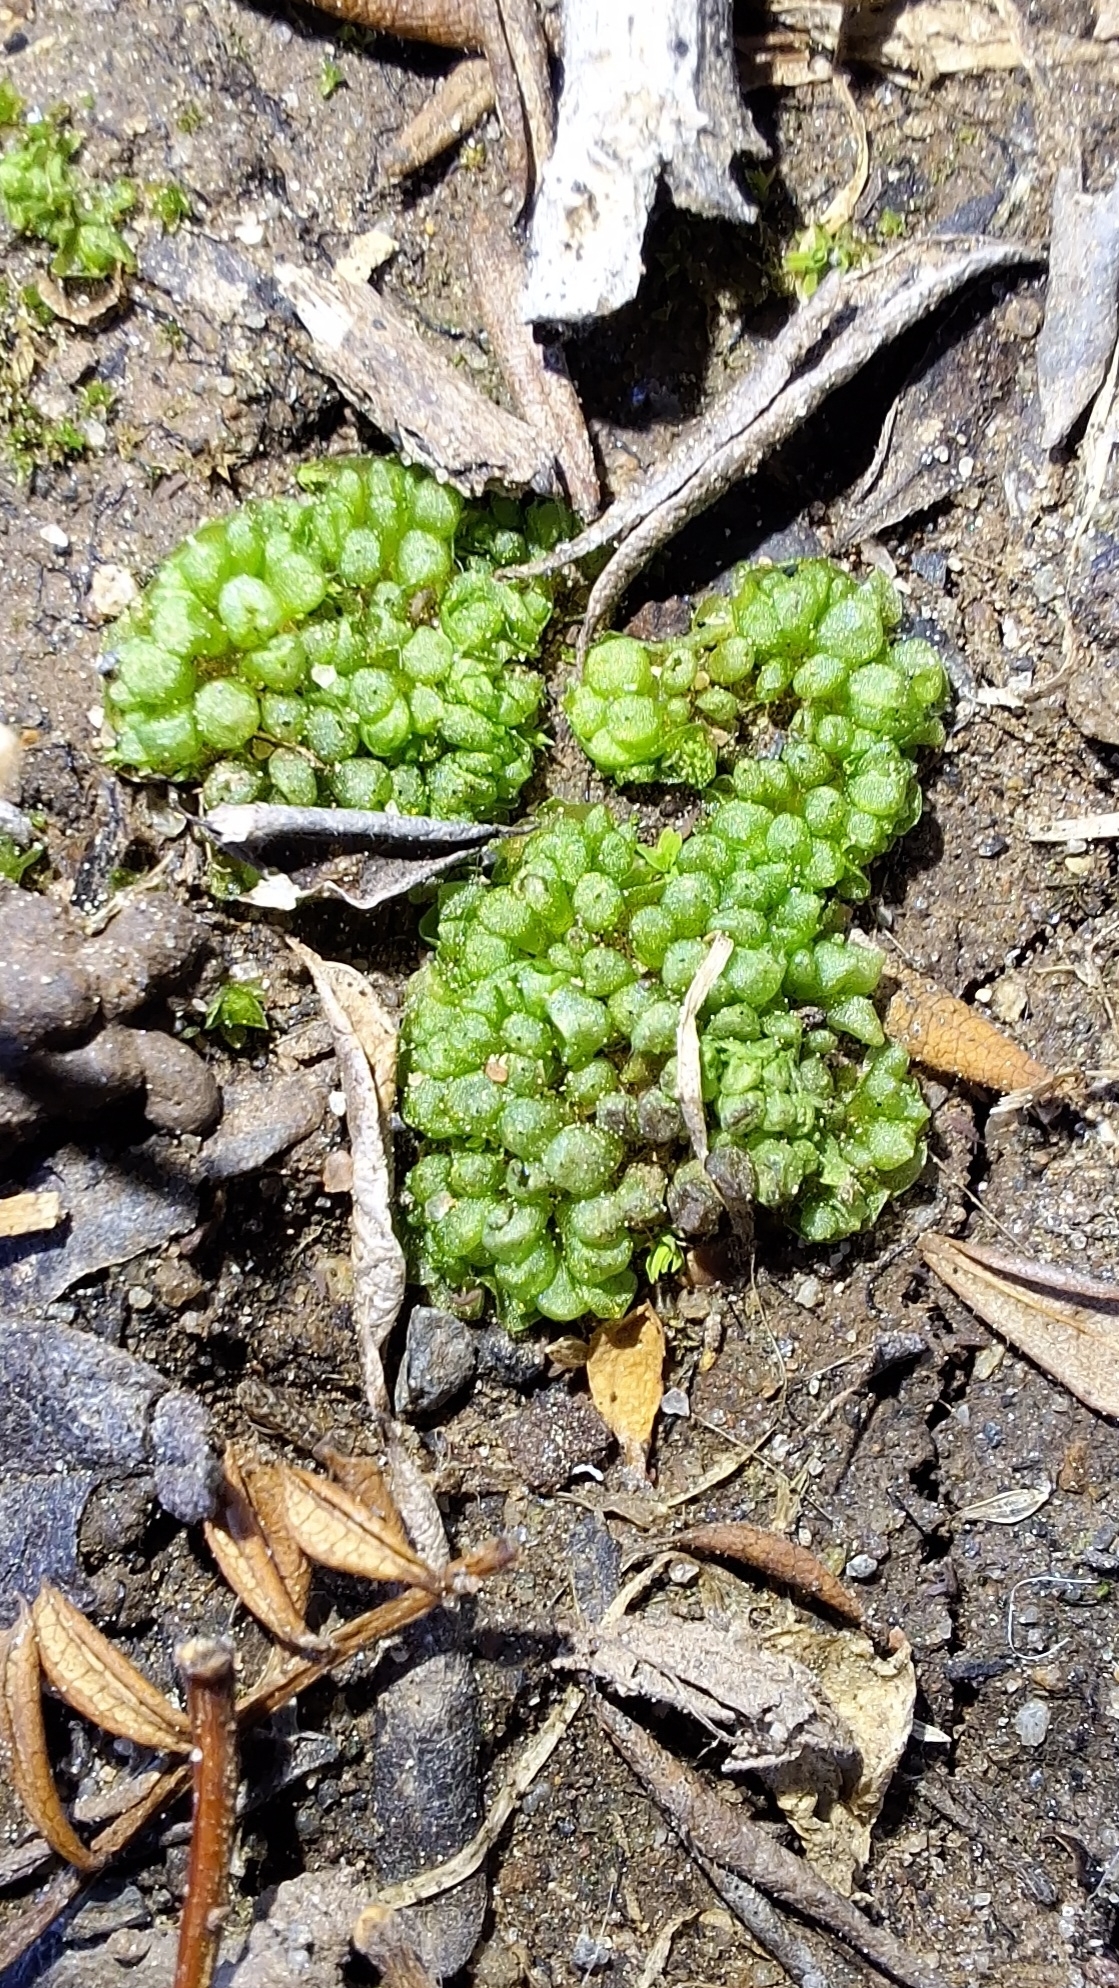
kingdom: Plantae
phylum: Marchantiophyta
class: Marchantiopsida
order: Sphaerocarpales
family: Sphaerocarpaceae
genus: Sphaerocarpos
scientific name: Sphaerocarpos texanus
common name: Texas balloonwort
